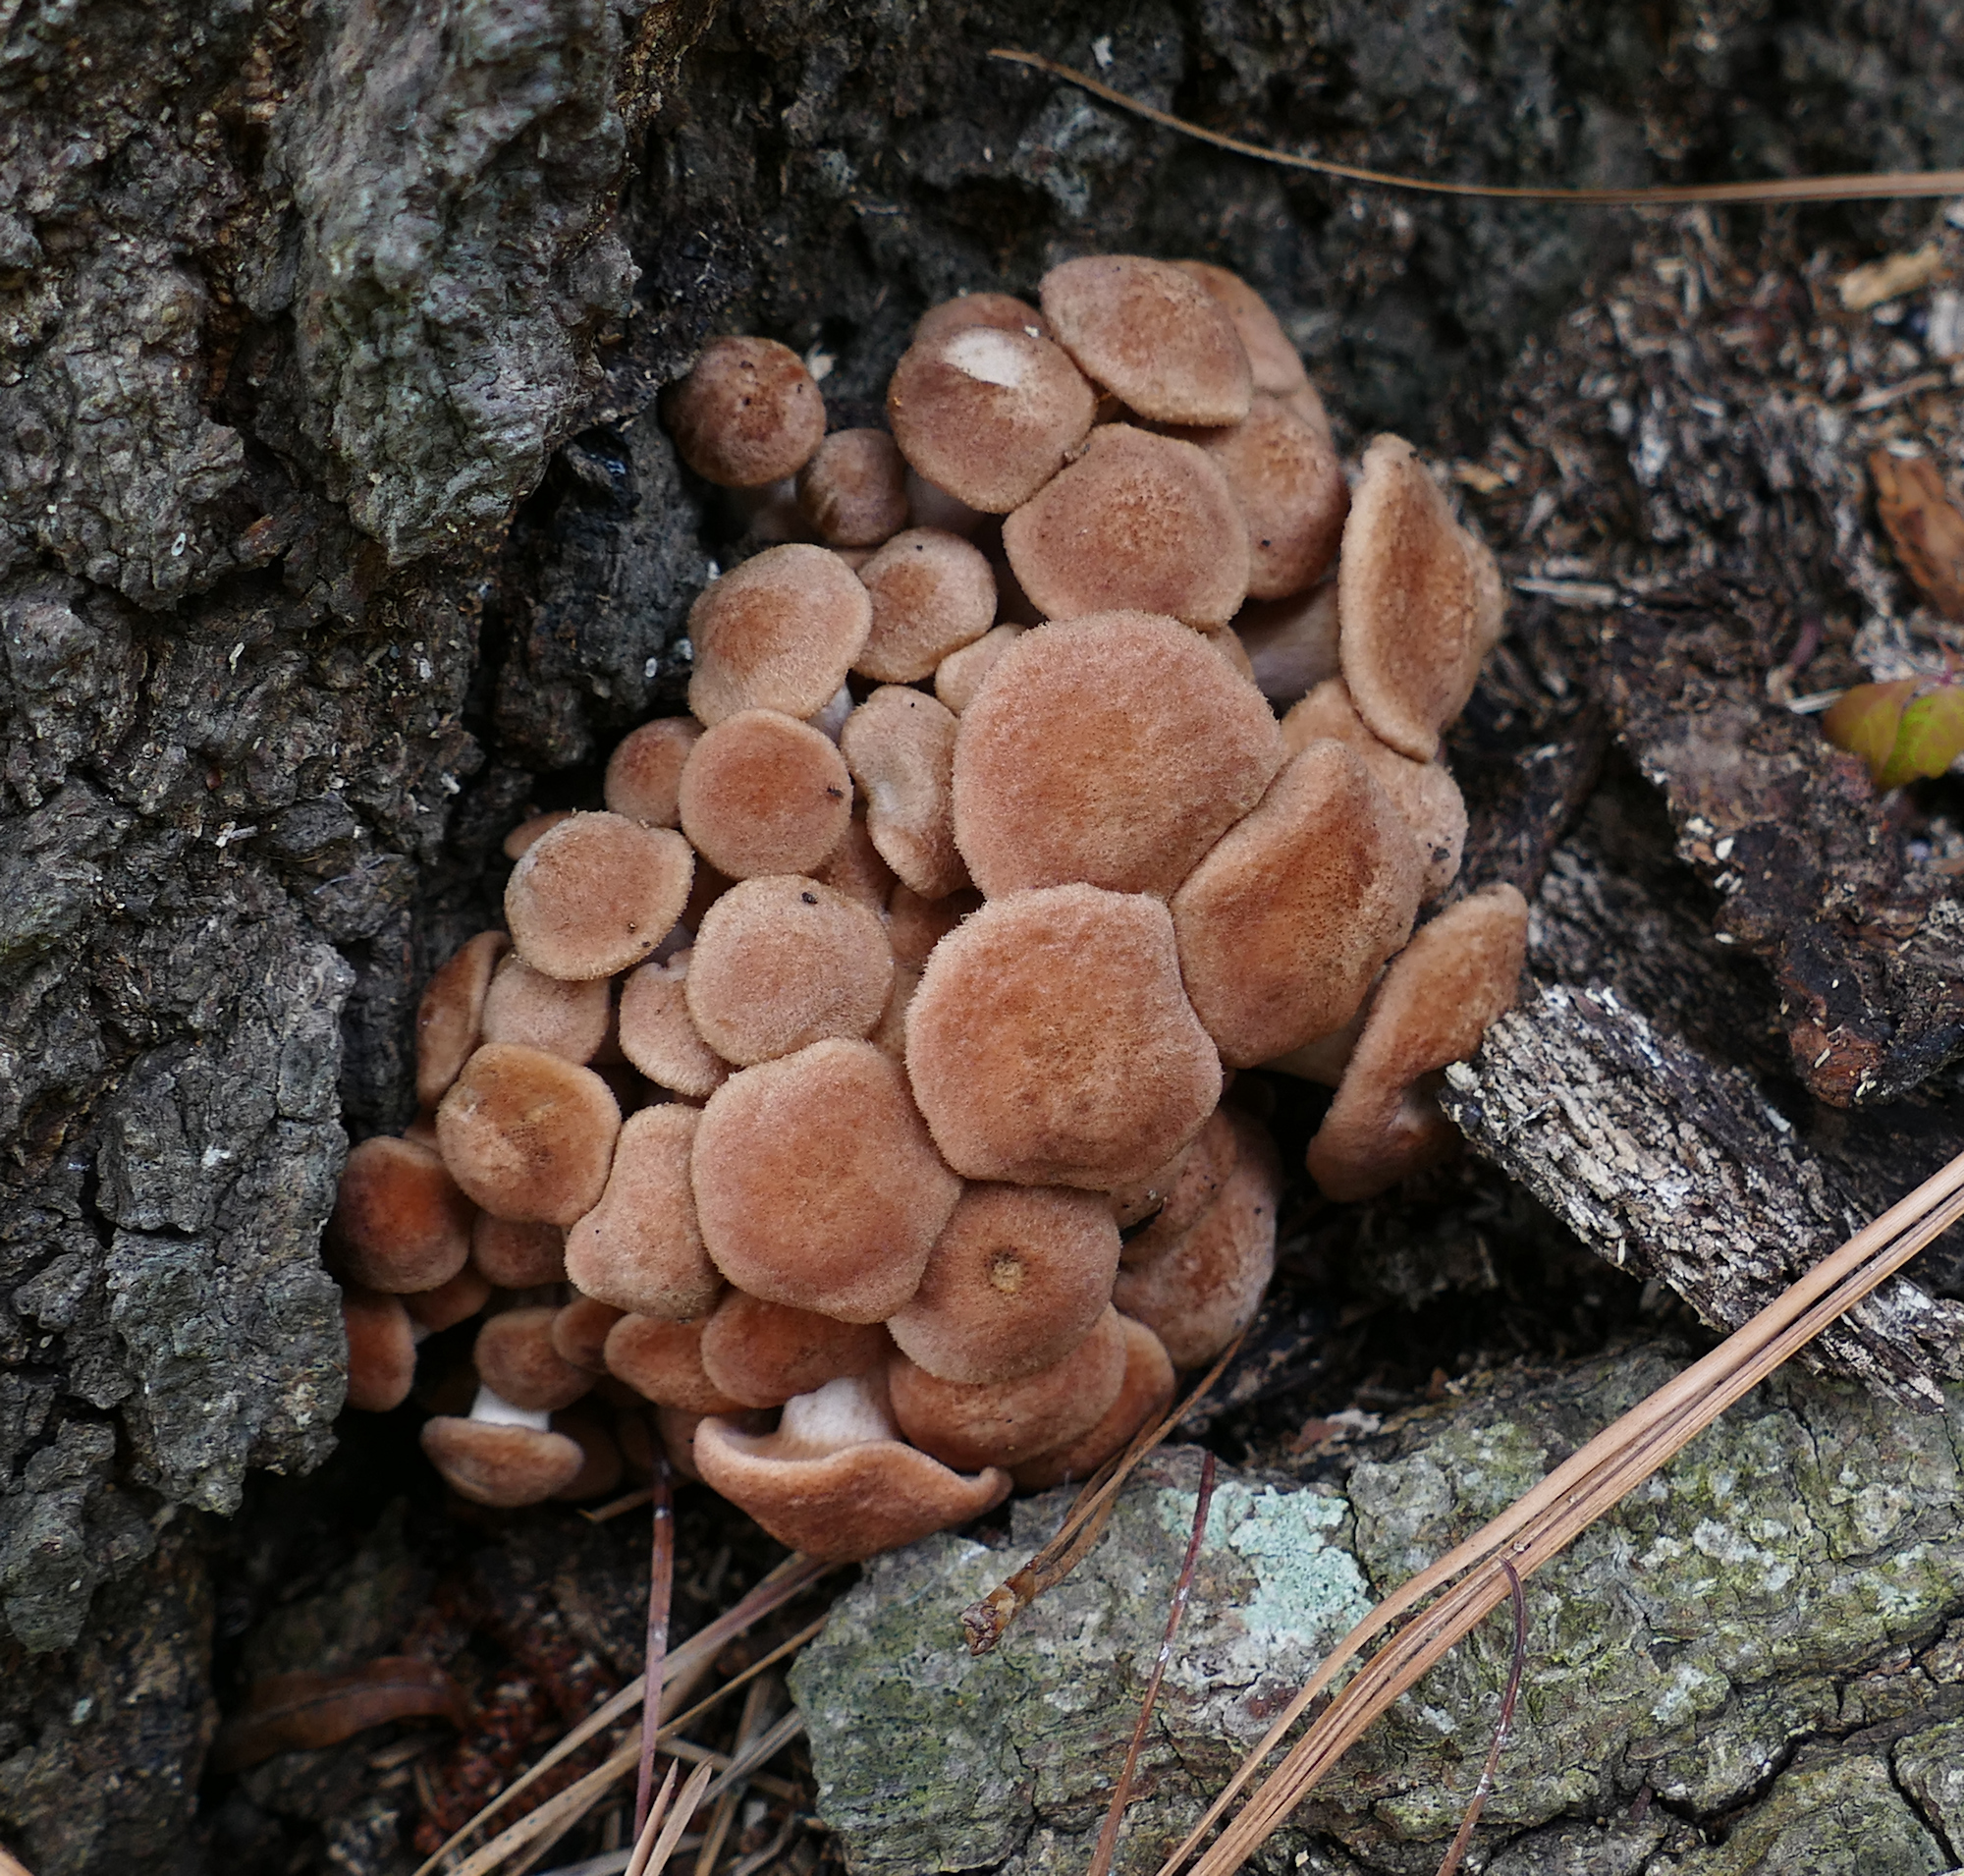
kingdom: Fungi
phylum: Basidiomycota
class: Agaricomycetes
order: Agaricales
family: Physalacriaceae
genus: Desarmillaria
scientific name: Desarmillaria caespitosa
